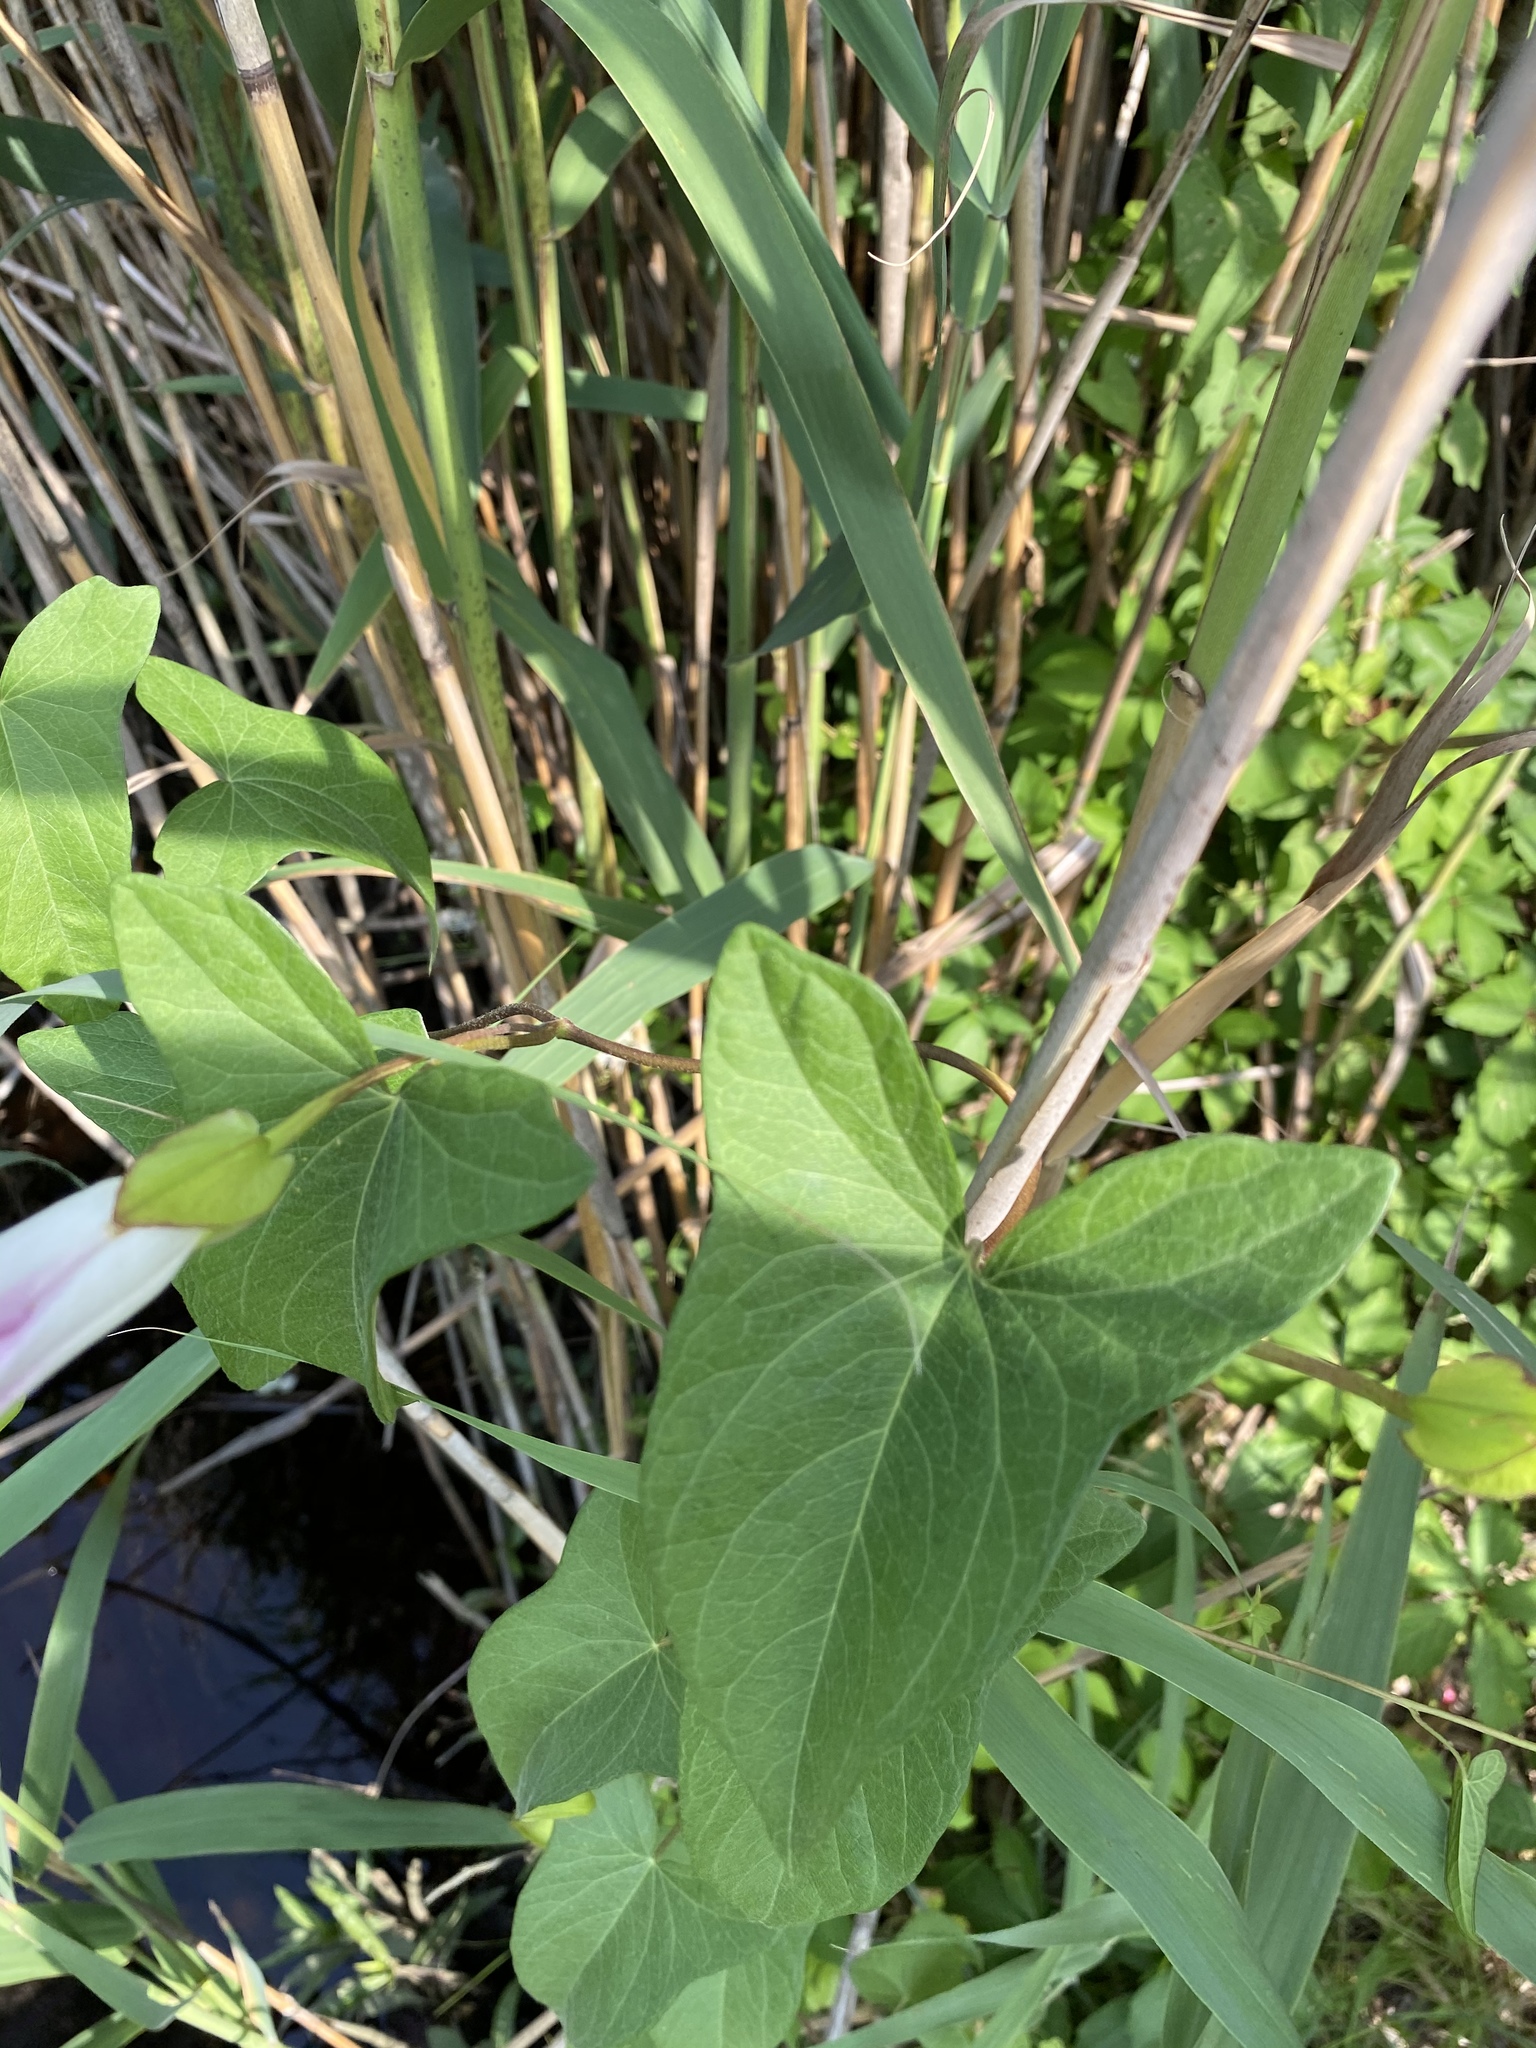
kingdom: Plantae
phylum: Tracheophyta
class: Magnoliopsida
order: Solanales
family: Convolvulaceae
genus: Calystegia
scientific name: Calystegia sepium
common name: Hedge bindweed
